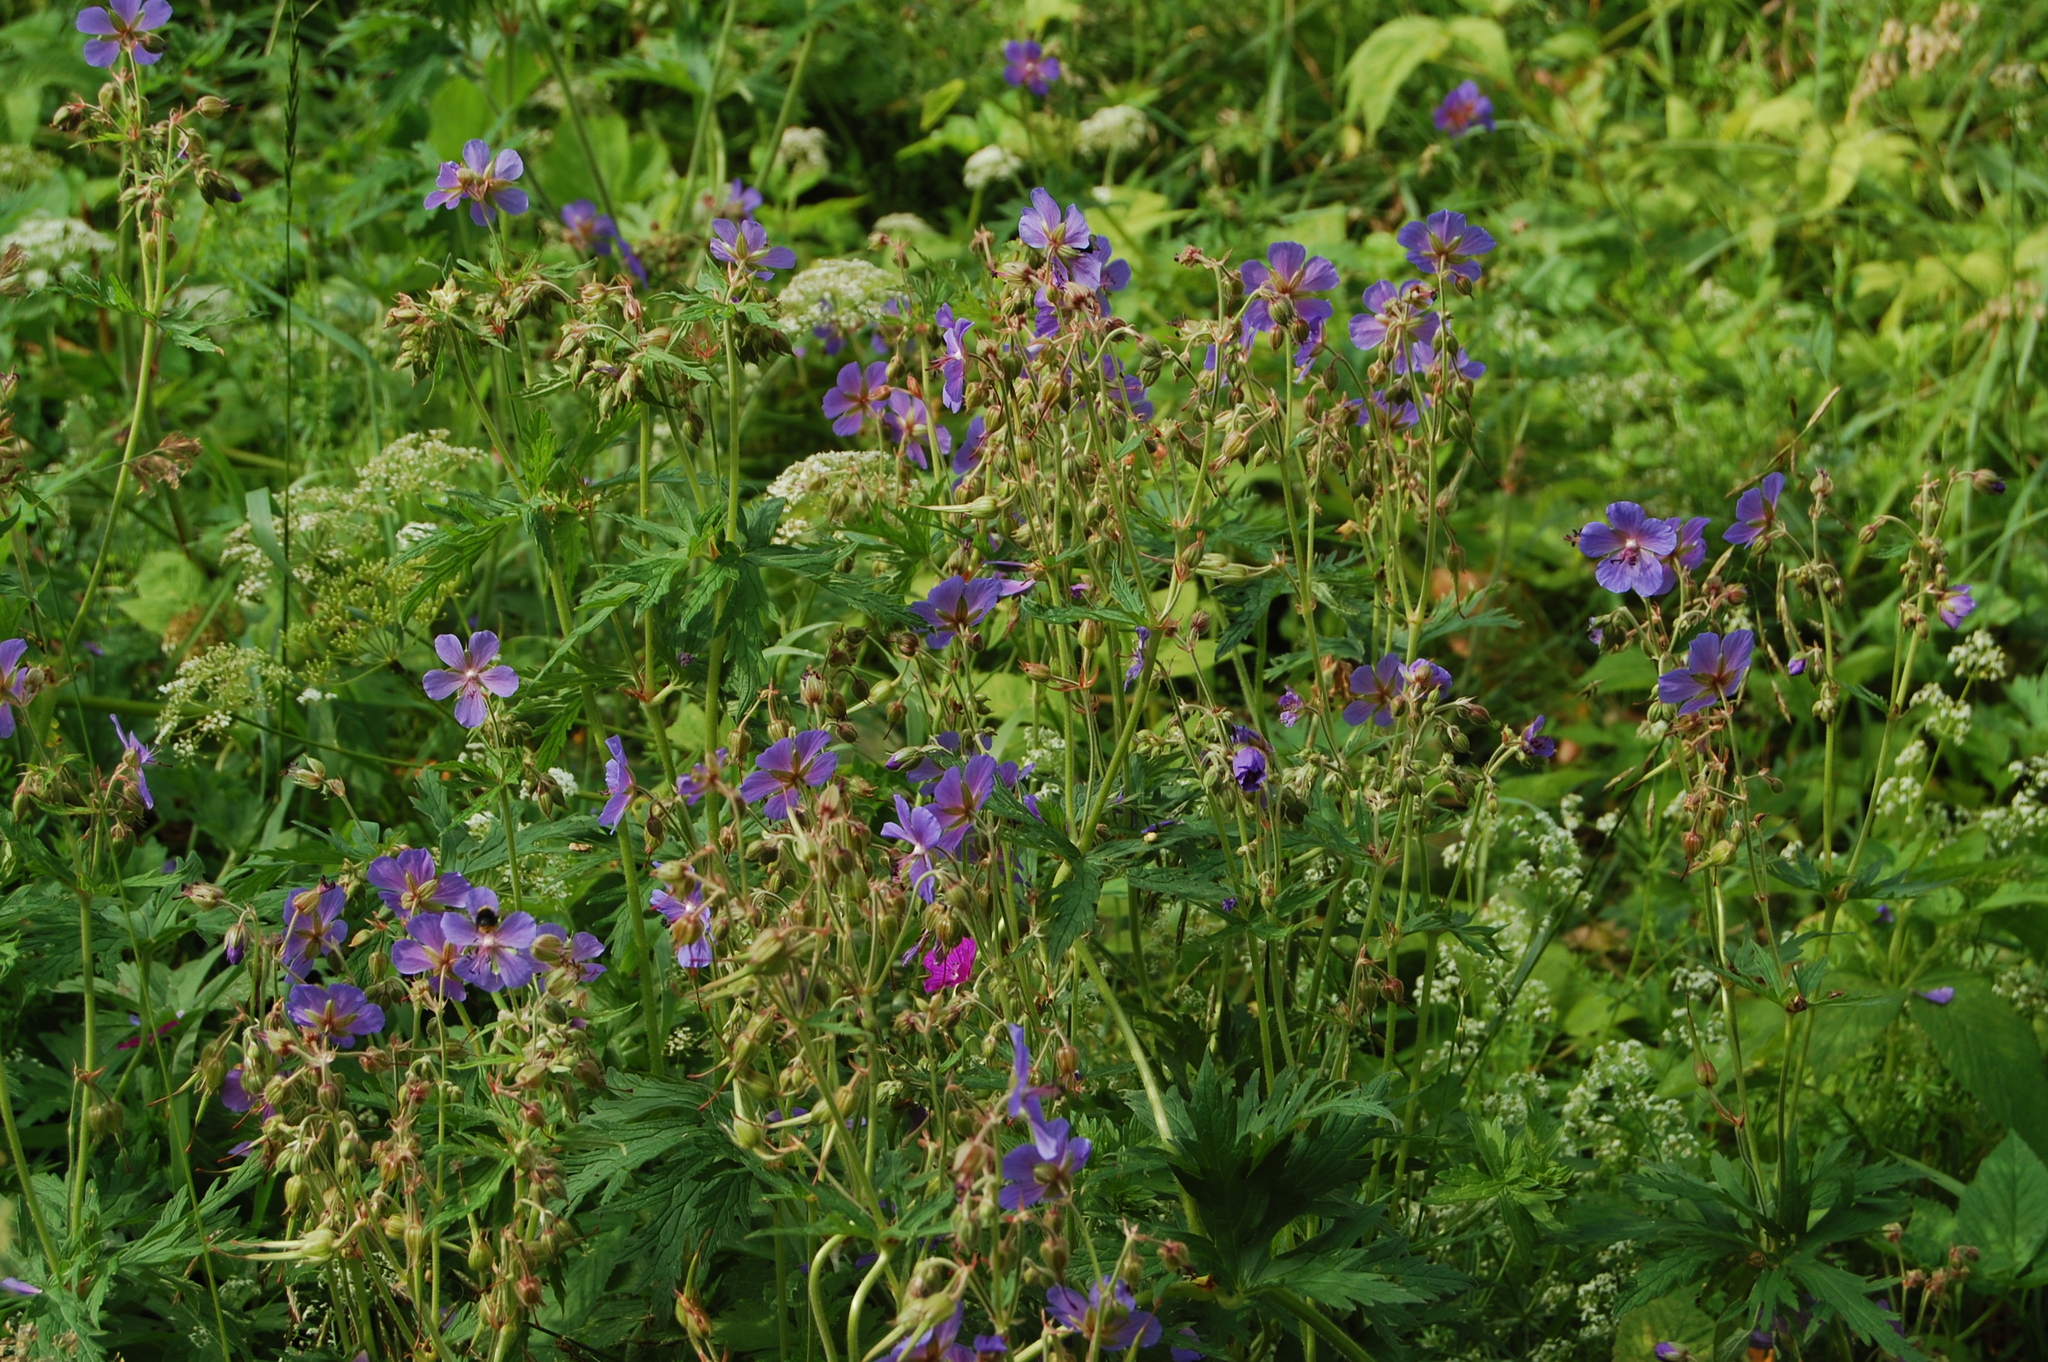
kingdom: Plantae
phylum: Tracheophyta
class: Magnoliopsida
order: Geraniales
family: Geraniaceae
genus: Geranium
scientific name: Geranium pratense
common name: Meadow crane's-bill
